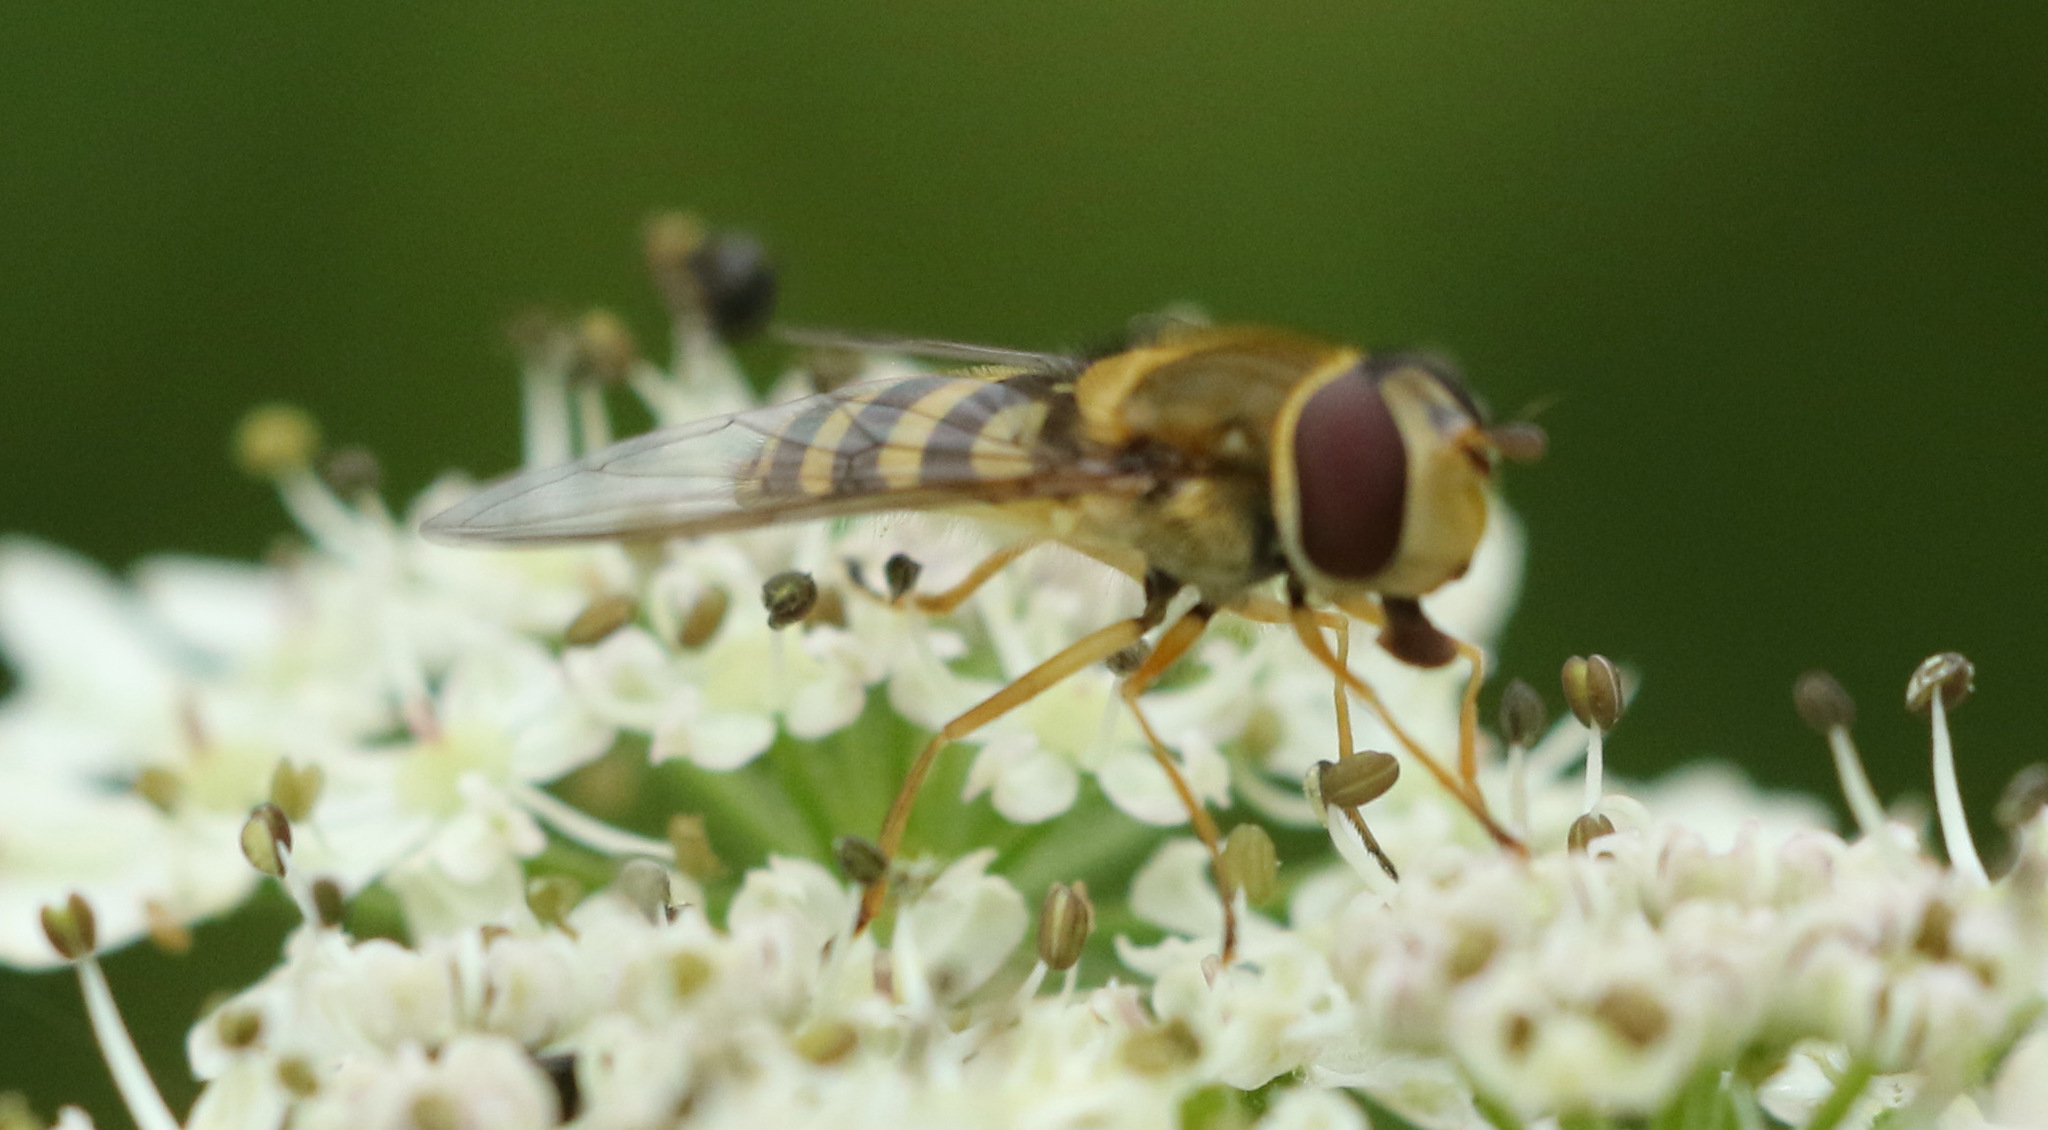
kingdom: Animalia
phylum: Arthropoda
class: Insecta
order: Diptera
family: Syrphidae
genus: Syrphus
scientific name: Syrphus ribesii
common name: Common flower fly
